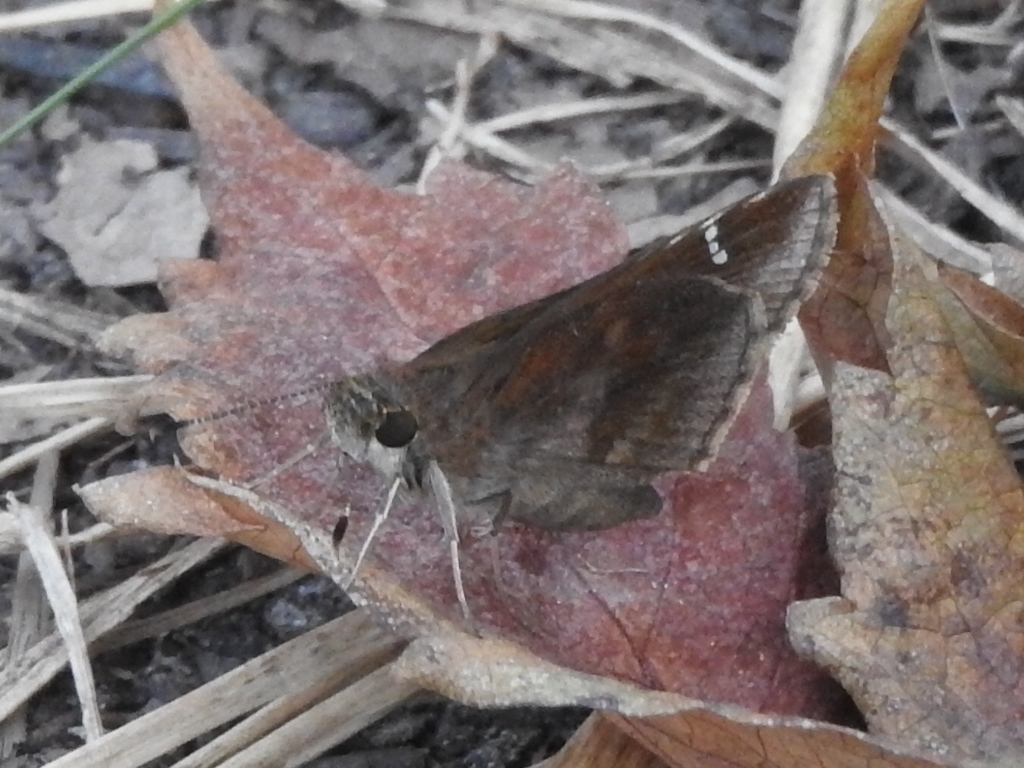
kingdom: Animalia
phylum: Arthropoda
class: Insecta
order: Lepidoptera
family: Hesperiidae
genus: Lerema
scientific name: Lerema accius
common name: Clouded skipper
